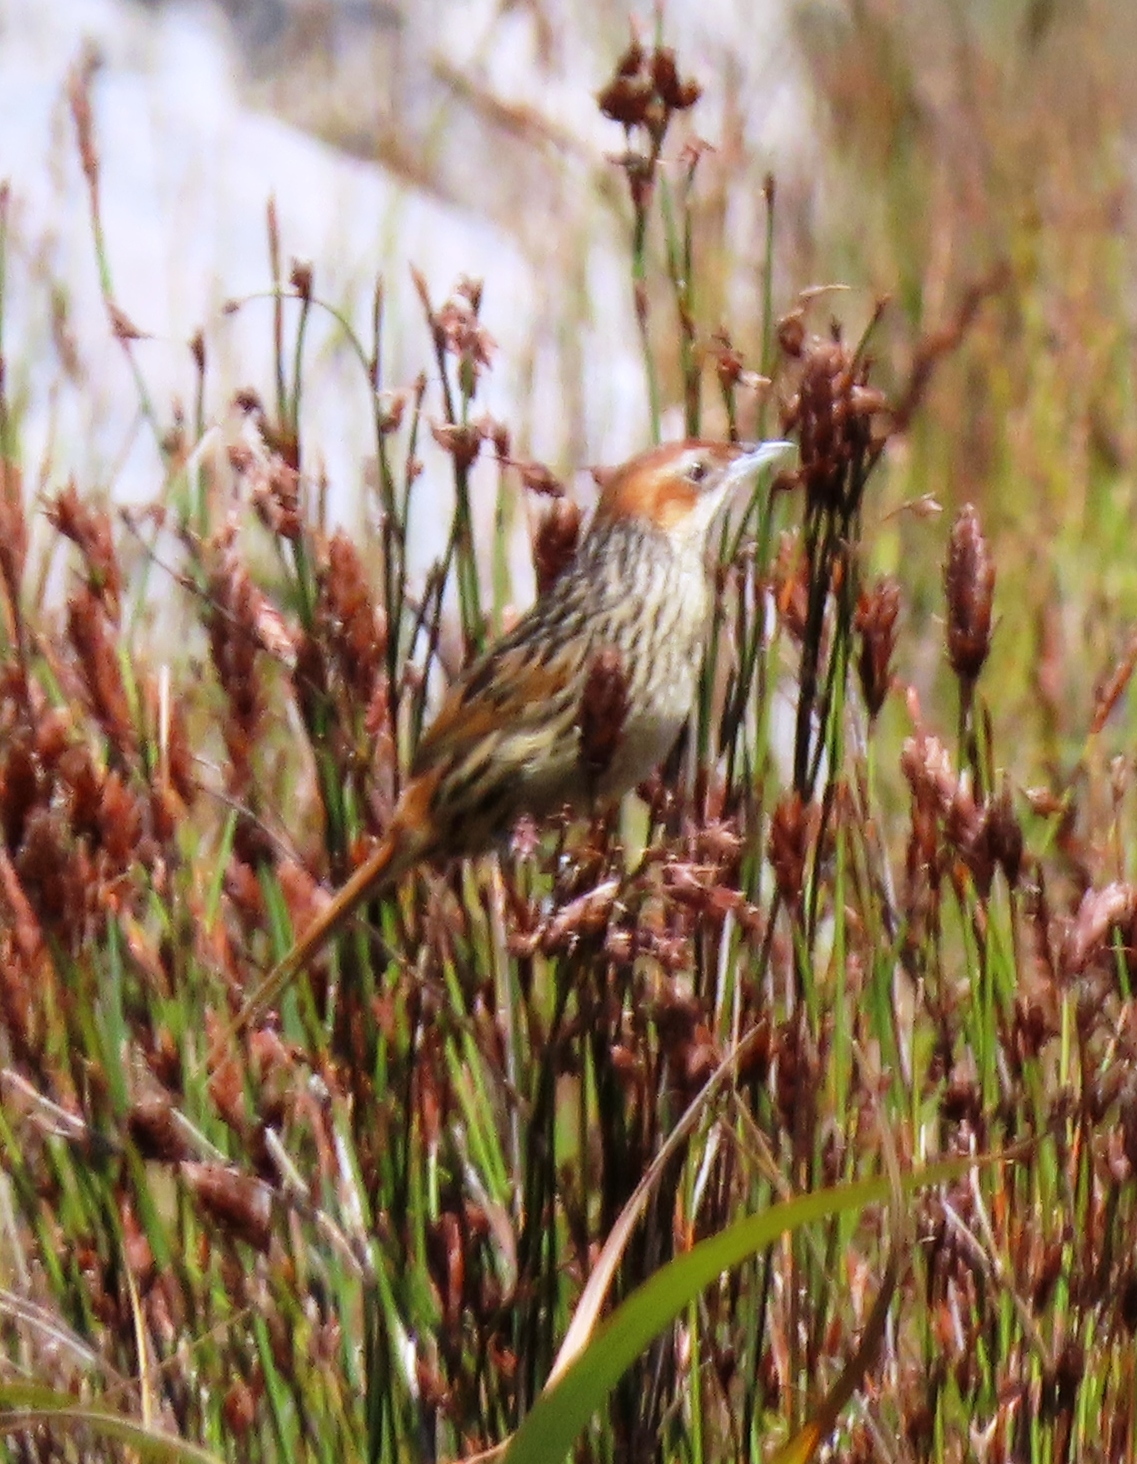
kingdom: Animalia
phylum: Chordata
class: Aves
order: Passeriformes
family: Macrosphenidae
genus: Sphenoeacus
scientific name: Sphenoeacus afer
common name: Cape grassbird
